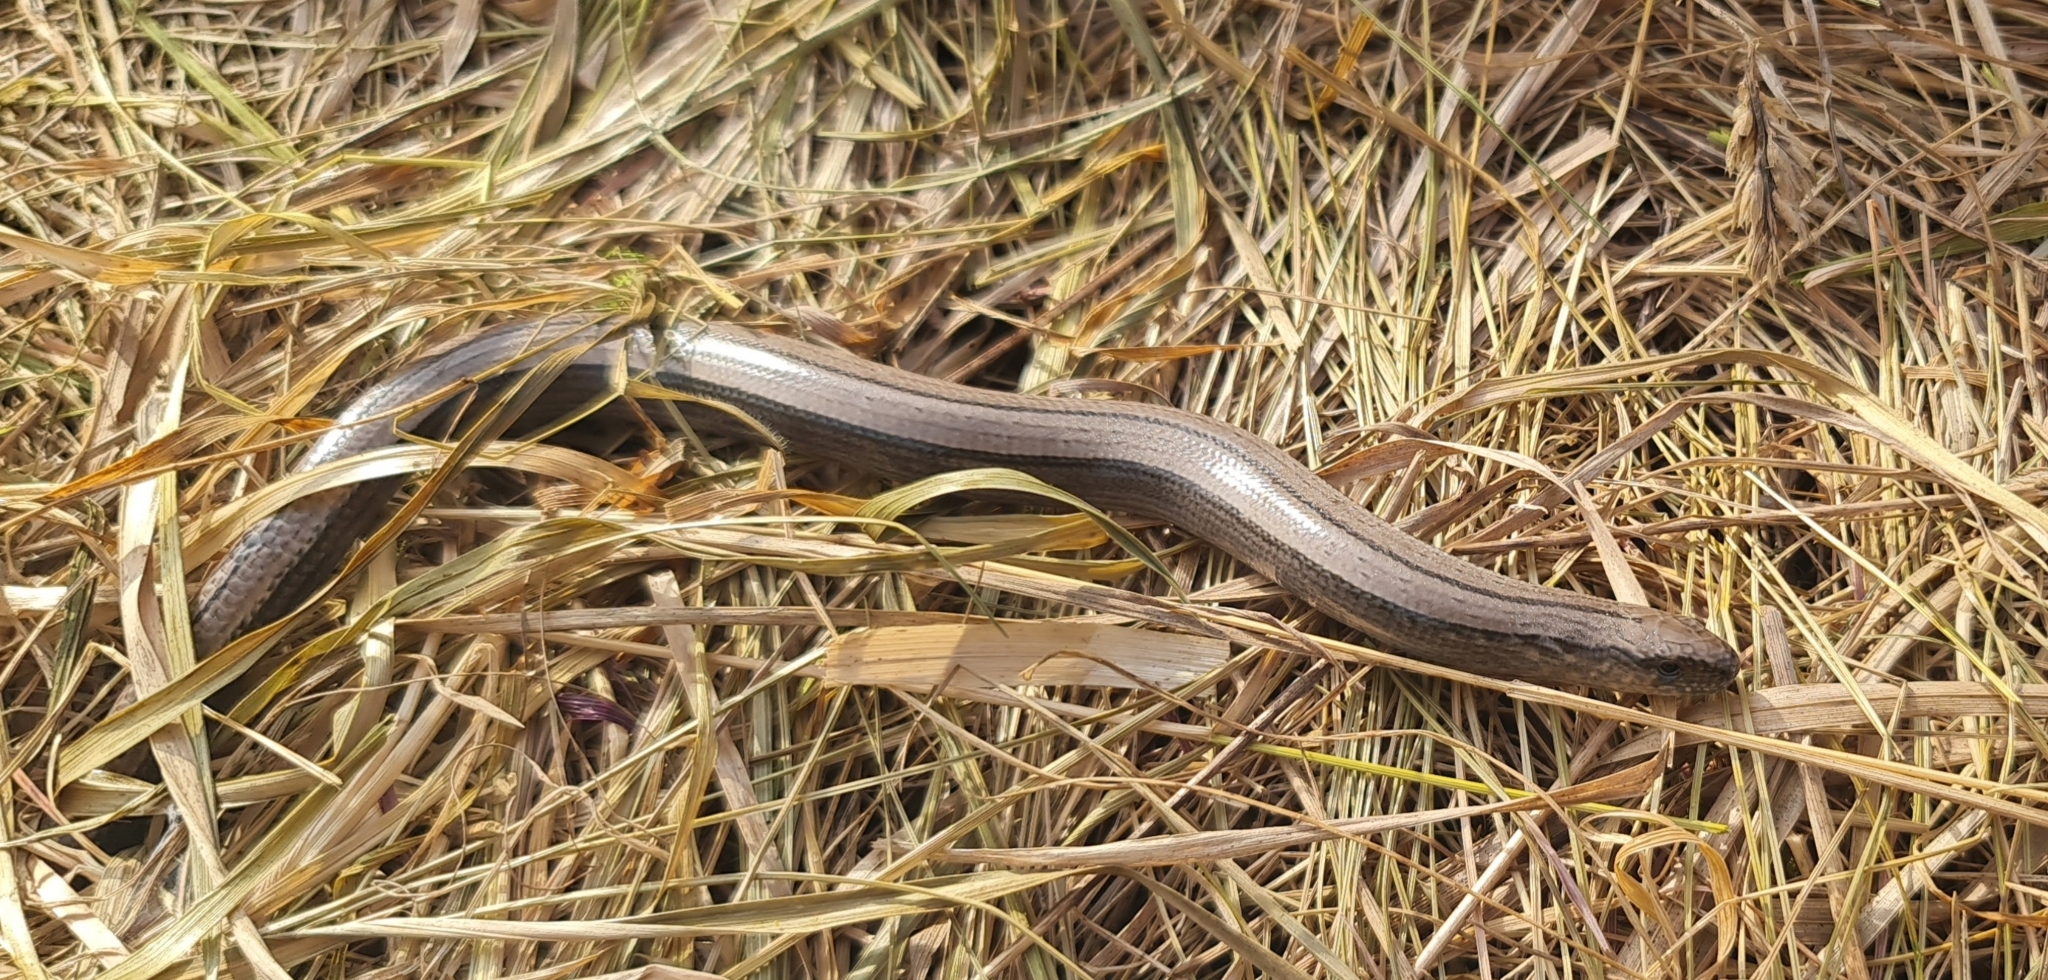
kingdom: Animalia
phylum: Chordata
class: Squamata
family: Anguidae
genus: Anguis
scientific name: Anguis fragilis
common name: Slow worm
